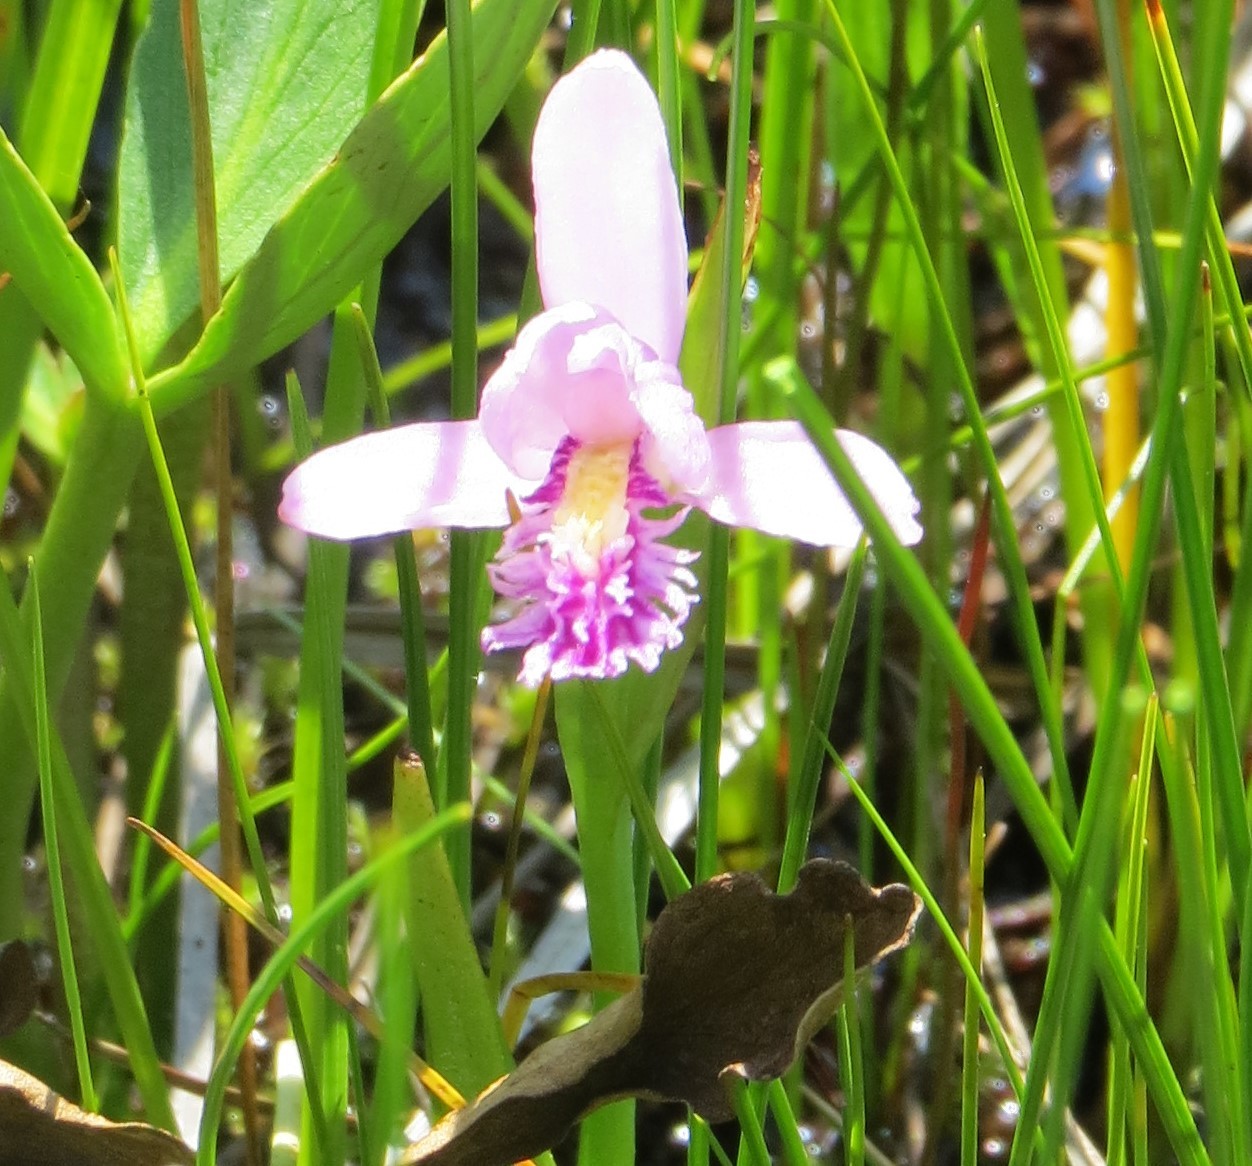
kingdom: Plantae
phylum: Tracheophyta
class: Liliopsida
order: Asparagales
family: Orchidaceae
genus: Pogonia
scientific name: Pogonia ophioglossoides
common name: Rose pogonia
